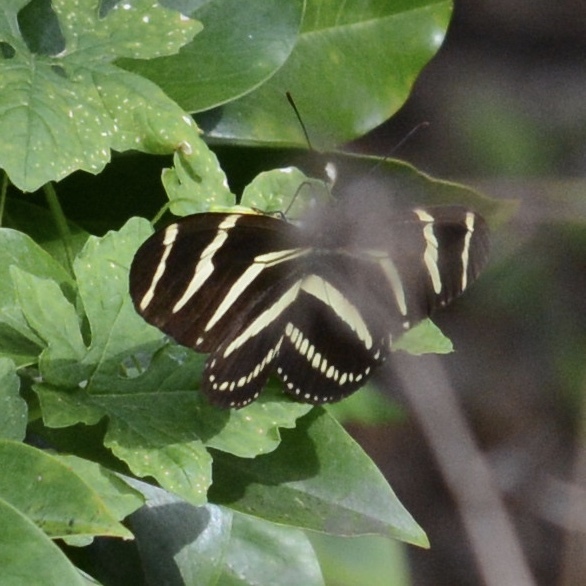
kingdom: Animalia
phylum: Arthropoda
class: Insecta
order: Lepidoptera
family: Nymphalidae
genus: Heliconius
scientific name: Heliconius charithonia
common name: Zebra long wing
